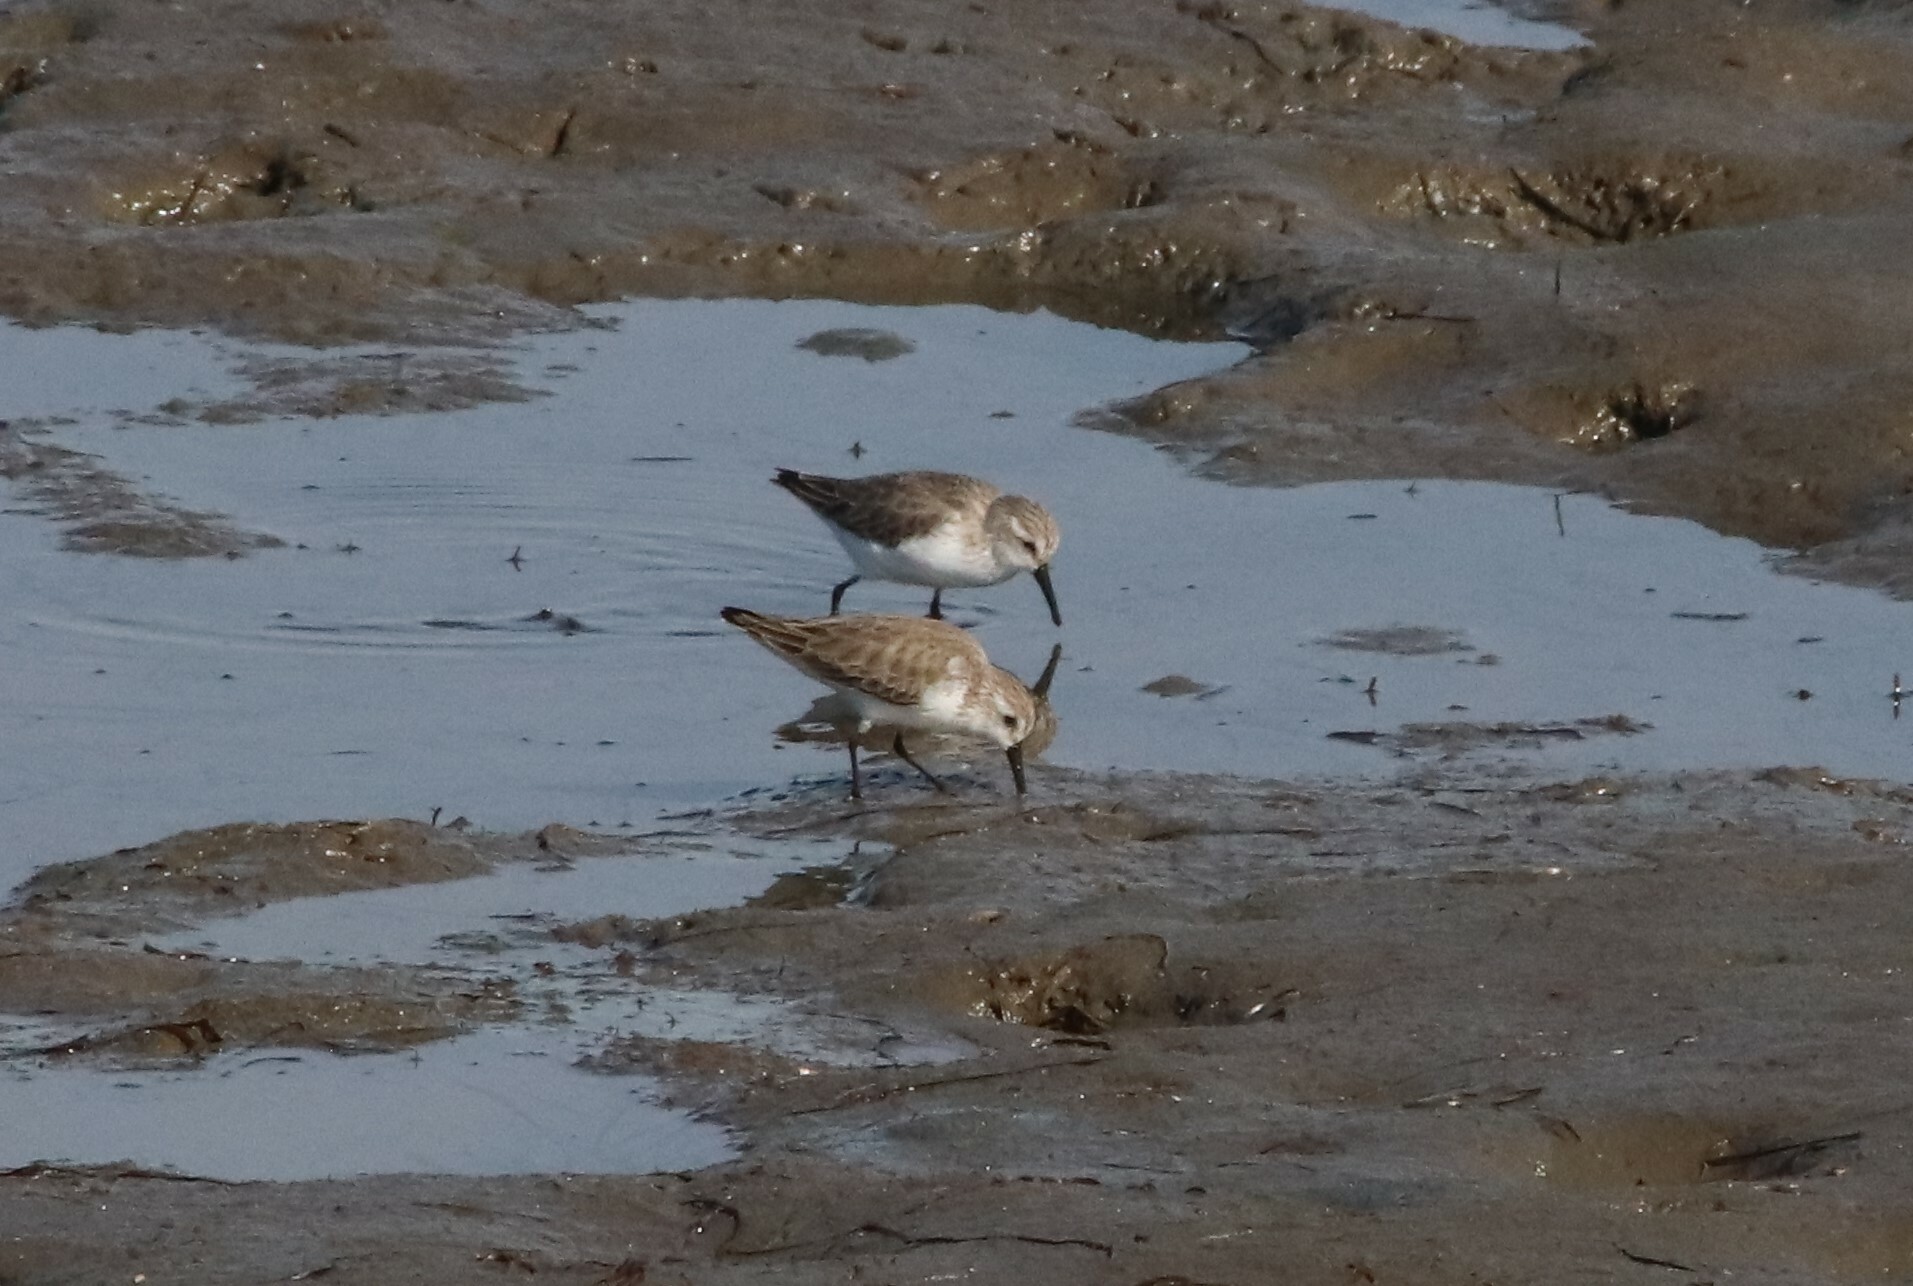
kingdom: Animalia
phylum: Chordata
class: Aves
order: Charadriiformes
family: Scolopacidae
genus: Calidris
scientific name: Calidris mauri
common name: Western sandpiper
